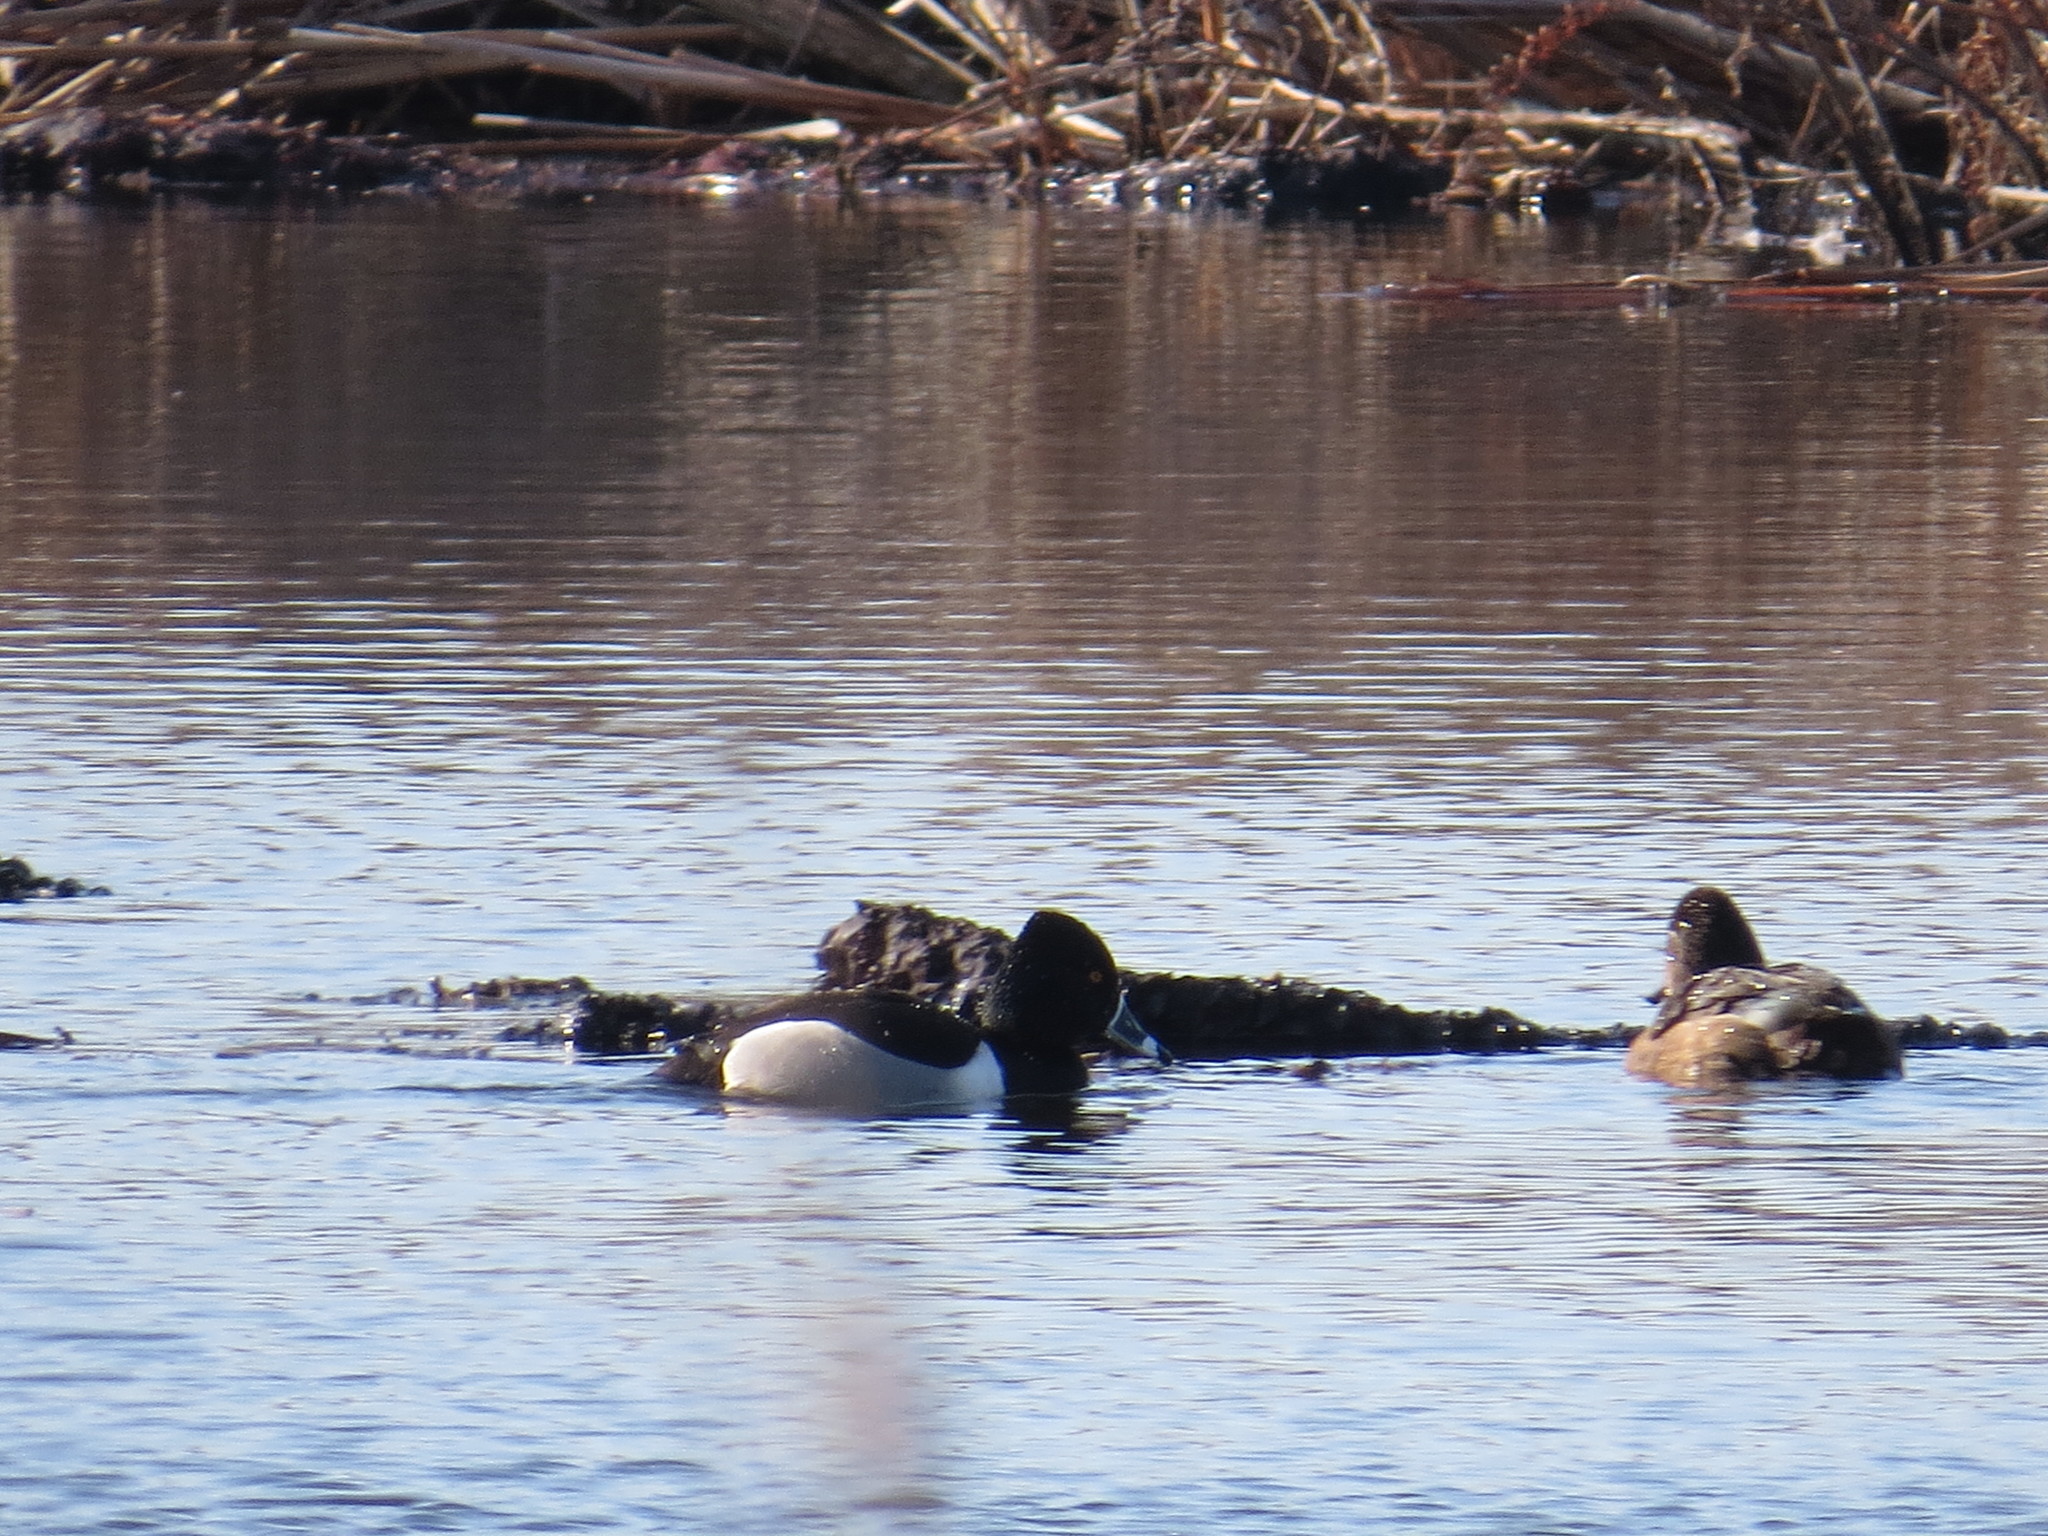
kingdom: Animalia
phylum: Chordata
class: Aves
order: Anseriformes
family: Anatidae
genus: Aythya
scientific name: Aythya collaris
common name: Ring-necked duck
